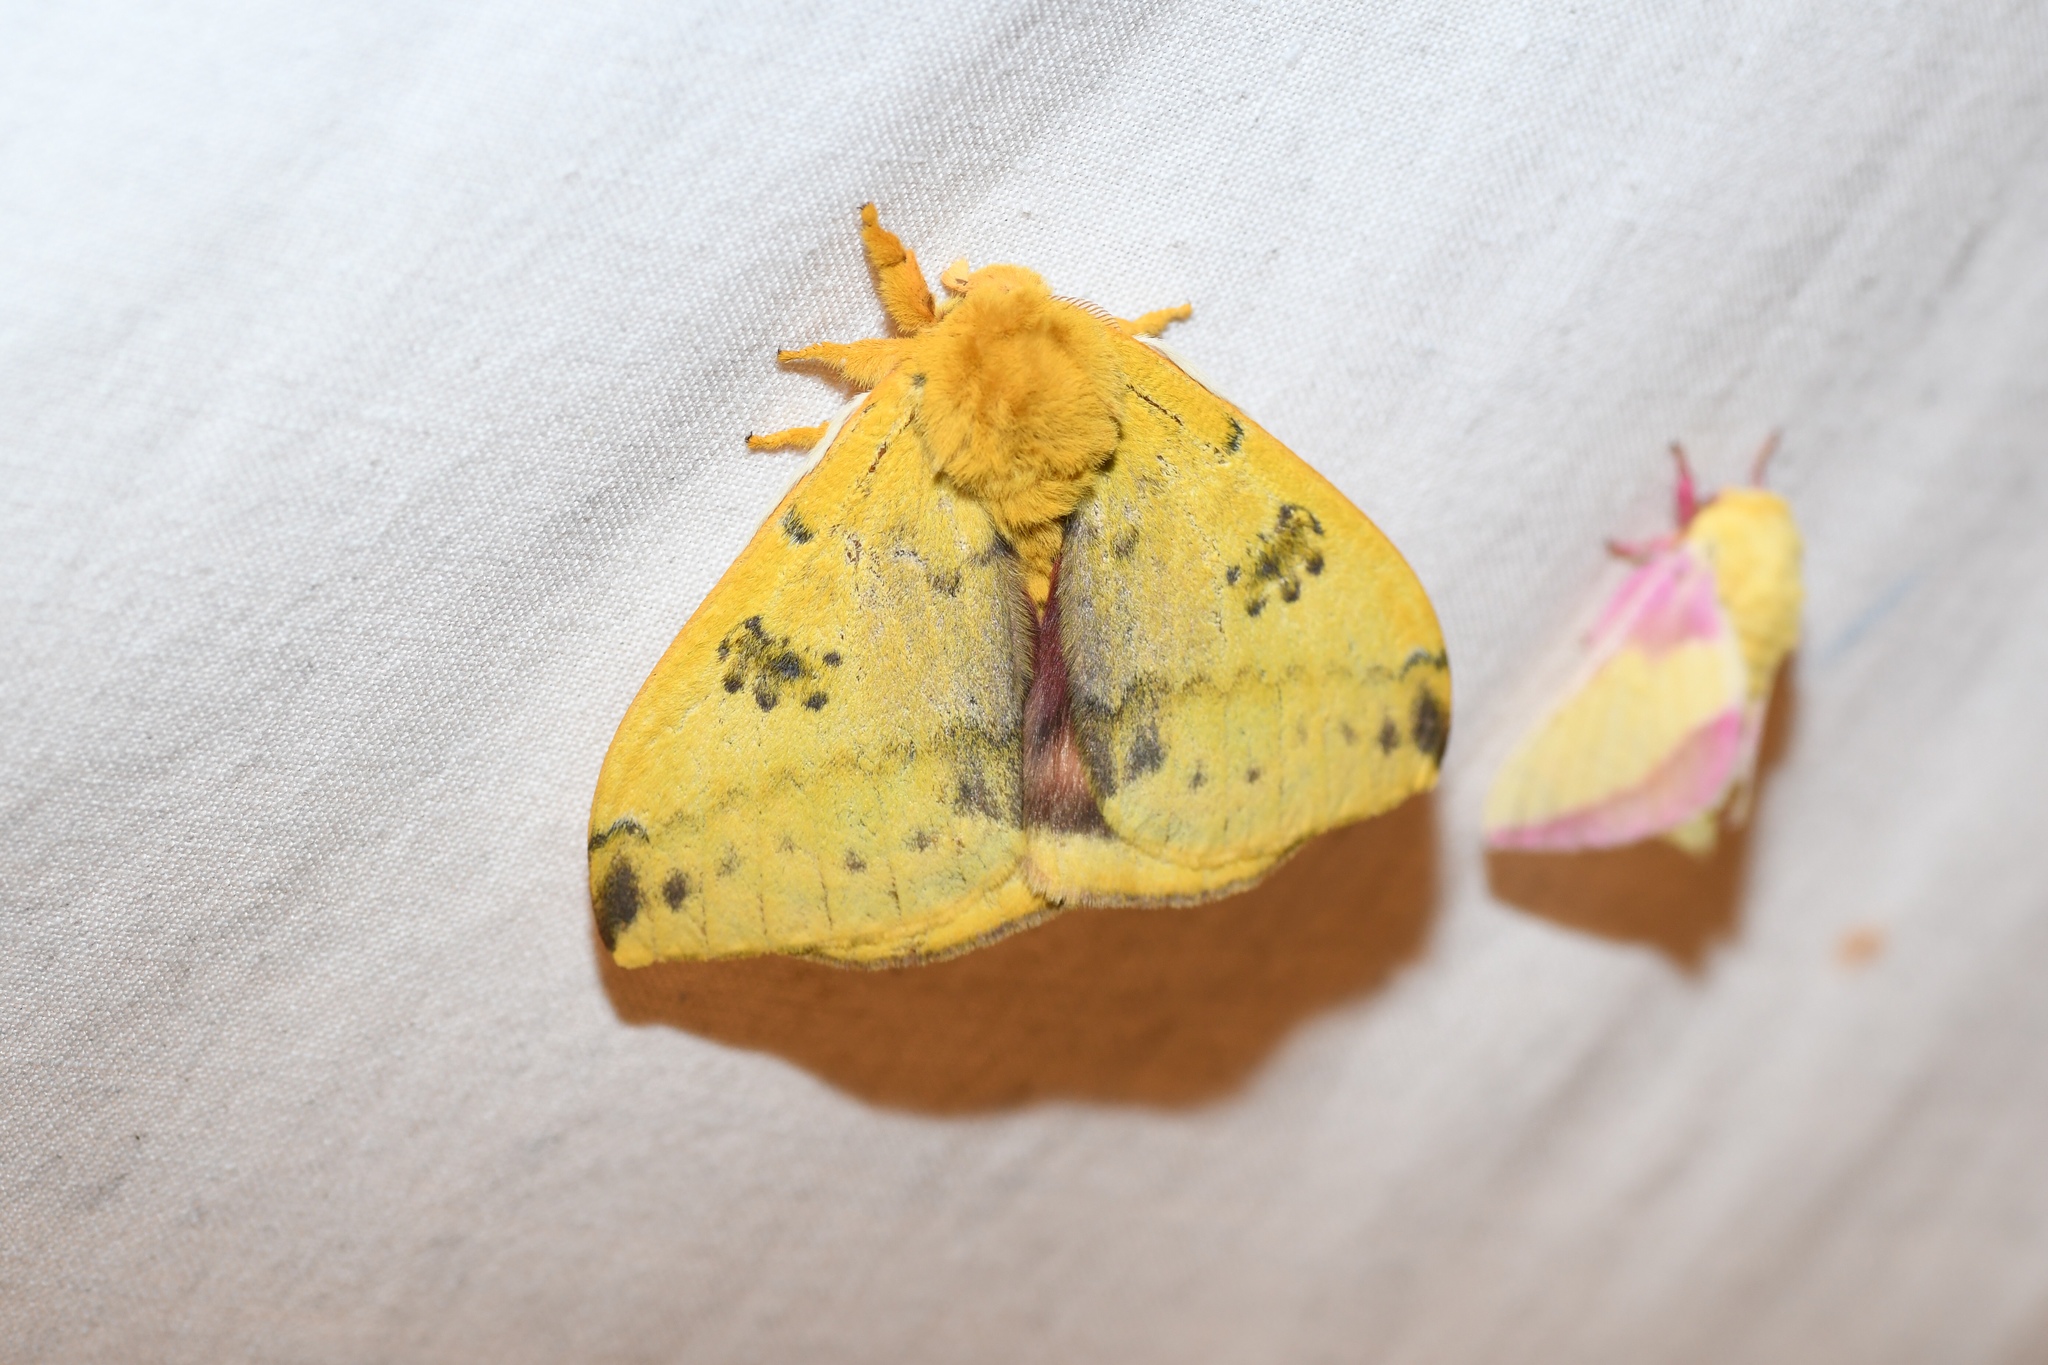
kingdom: Animalia
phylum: Arthropoda
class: Insecta
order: Lepidoptera
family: Saturniidae
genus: Automeris
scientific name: Automeris io
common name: Io moth
